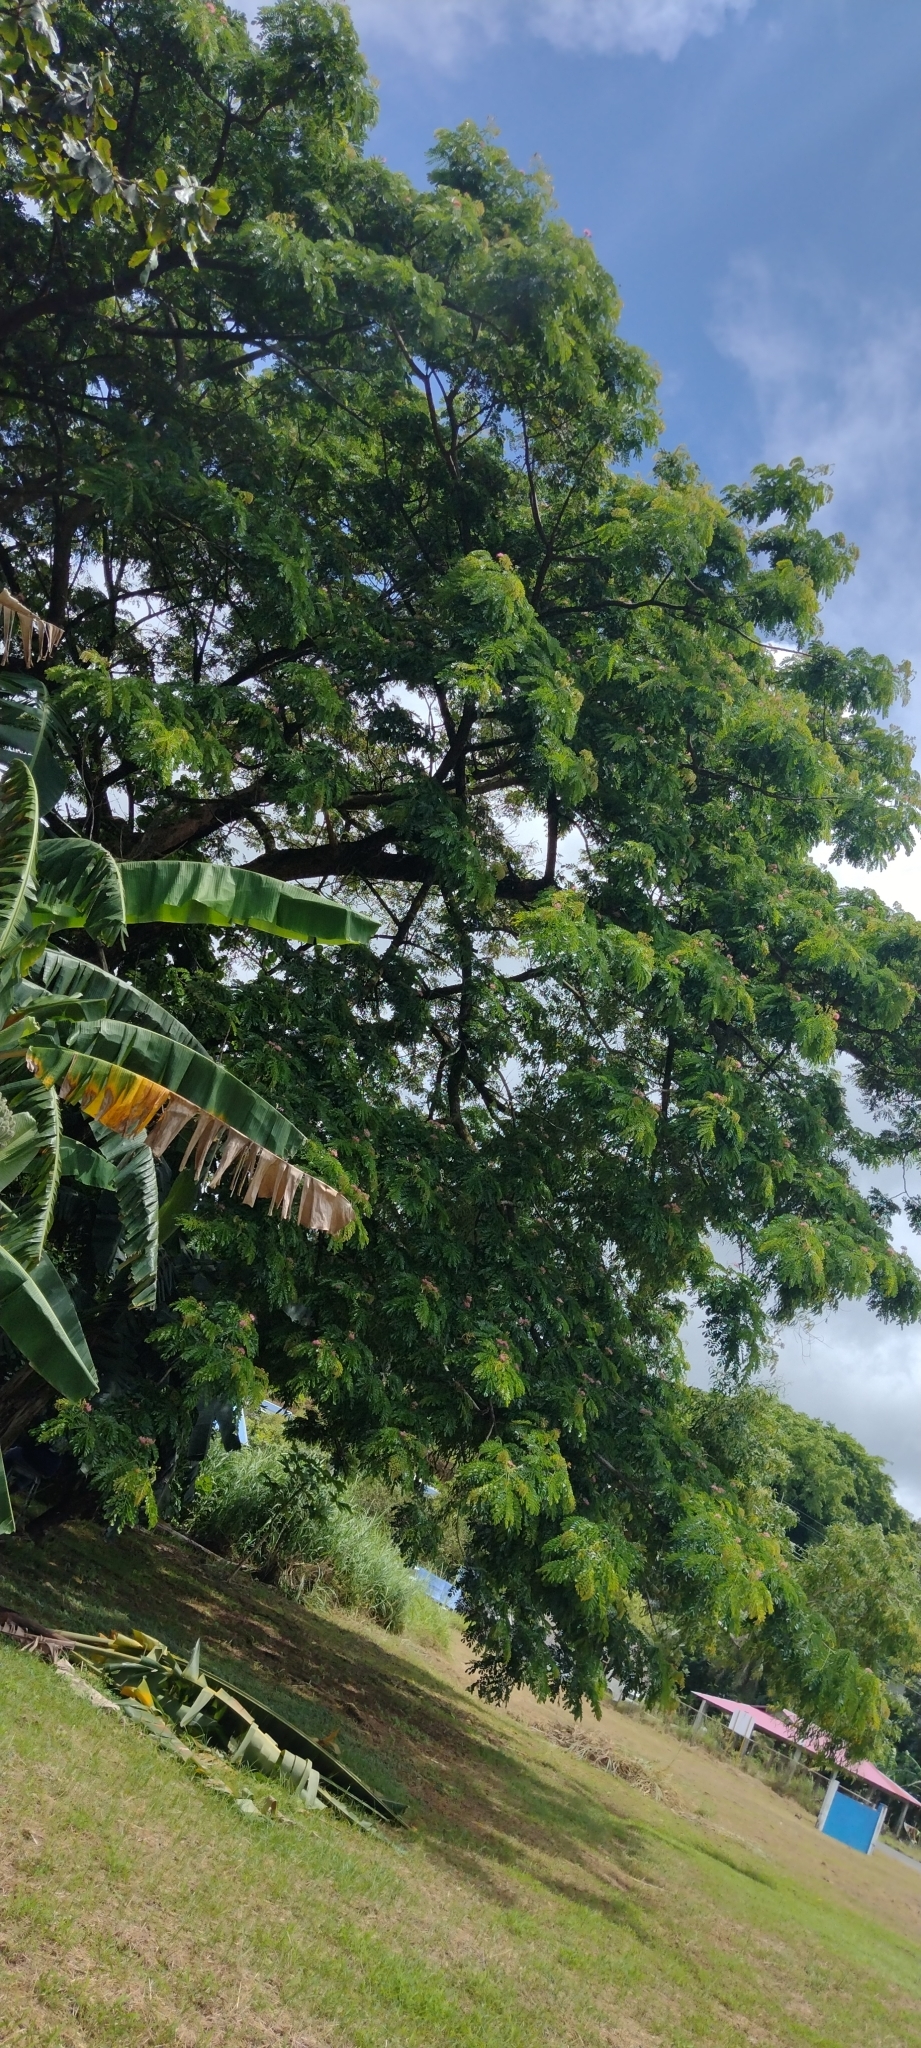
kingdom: Plantae
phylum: Tracheophyta
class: Magnoliopsida
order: Fabales
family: Fabaceae
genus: Samanea
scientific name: Samanea saman
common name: Raintree
